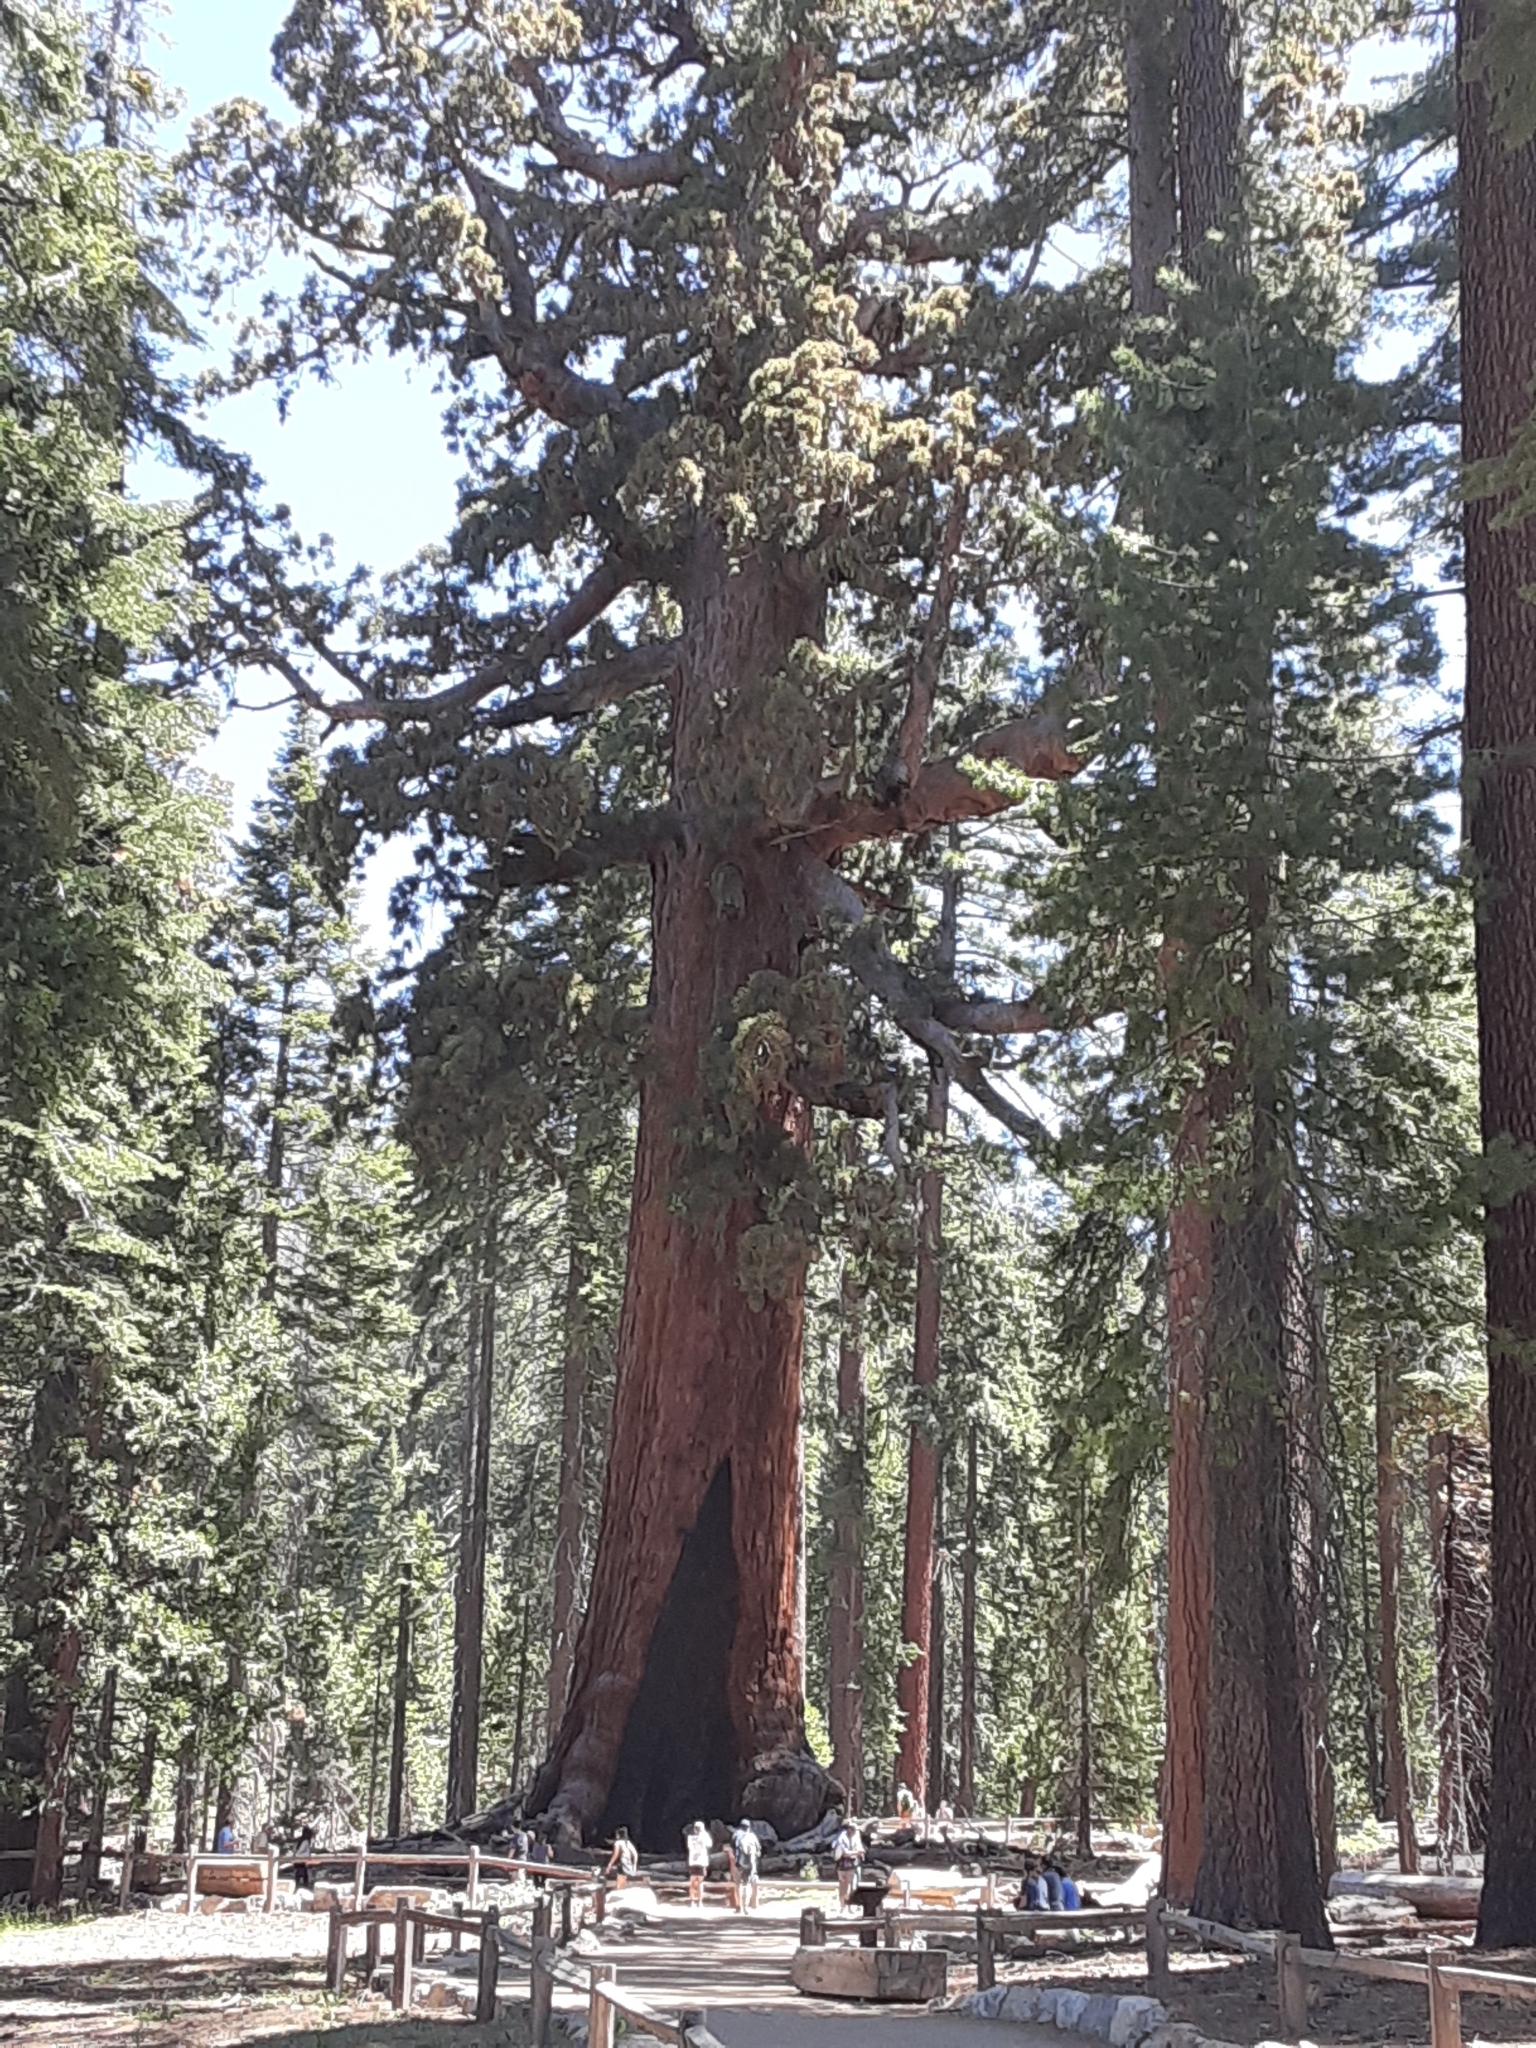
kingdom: Plantae
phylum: Tracheophyta
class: Pinopsida
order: Pinales
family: Cupressaceae
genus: Sequoiadendron
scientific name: Sequoiadendron giganteum
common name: Wellingtonia
